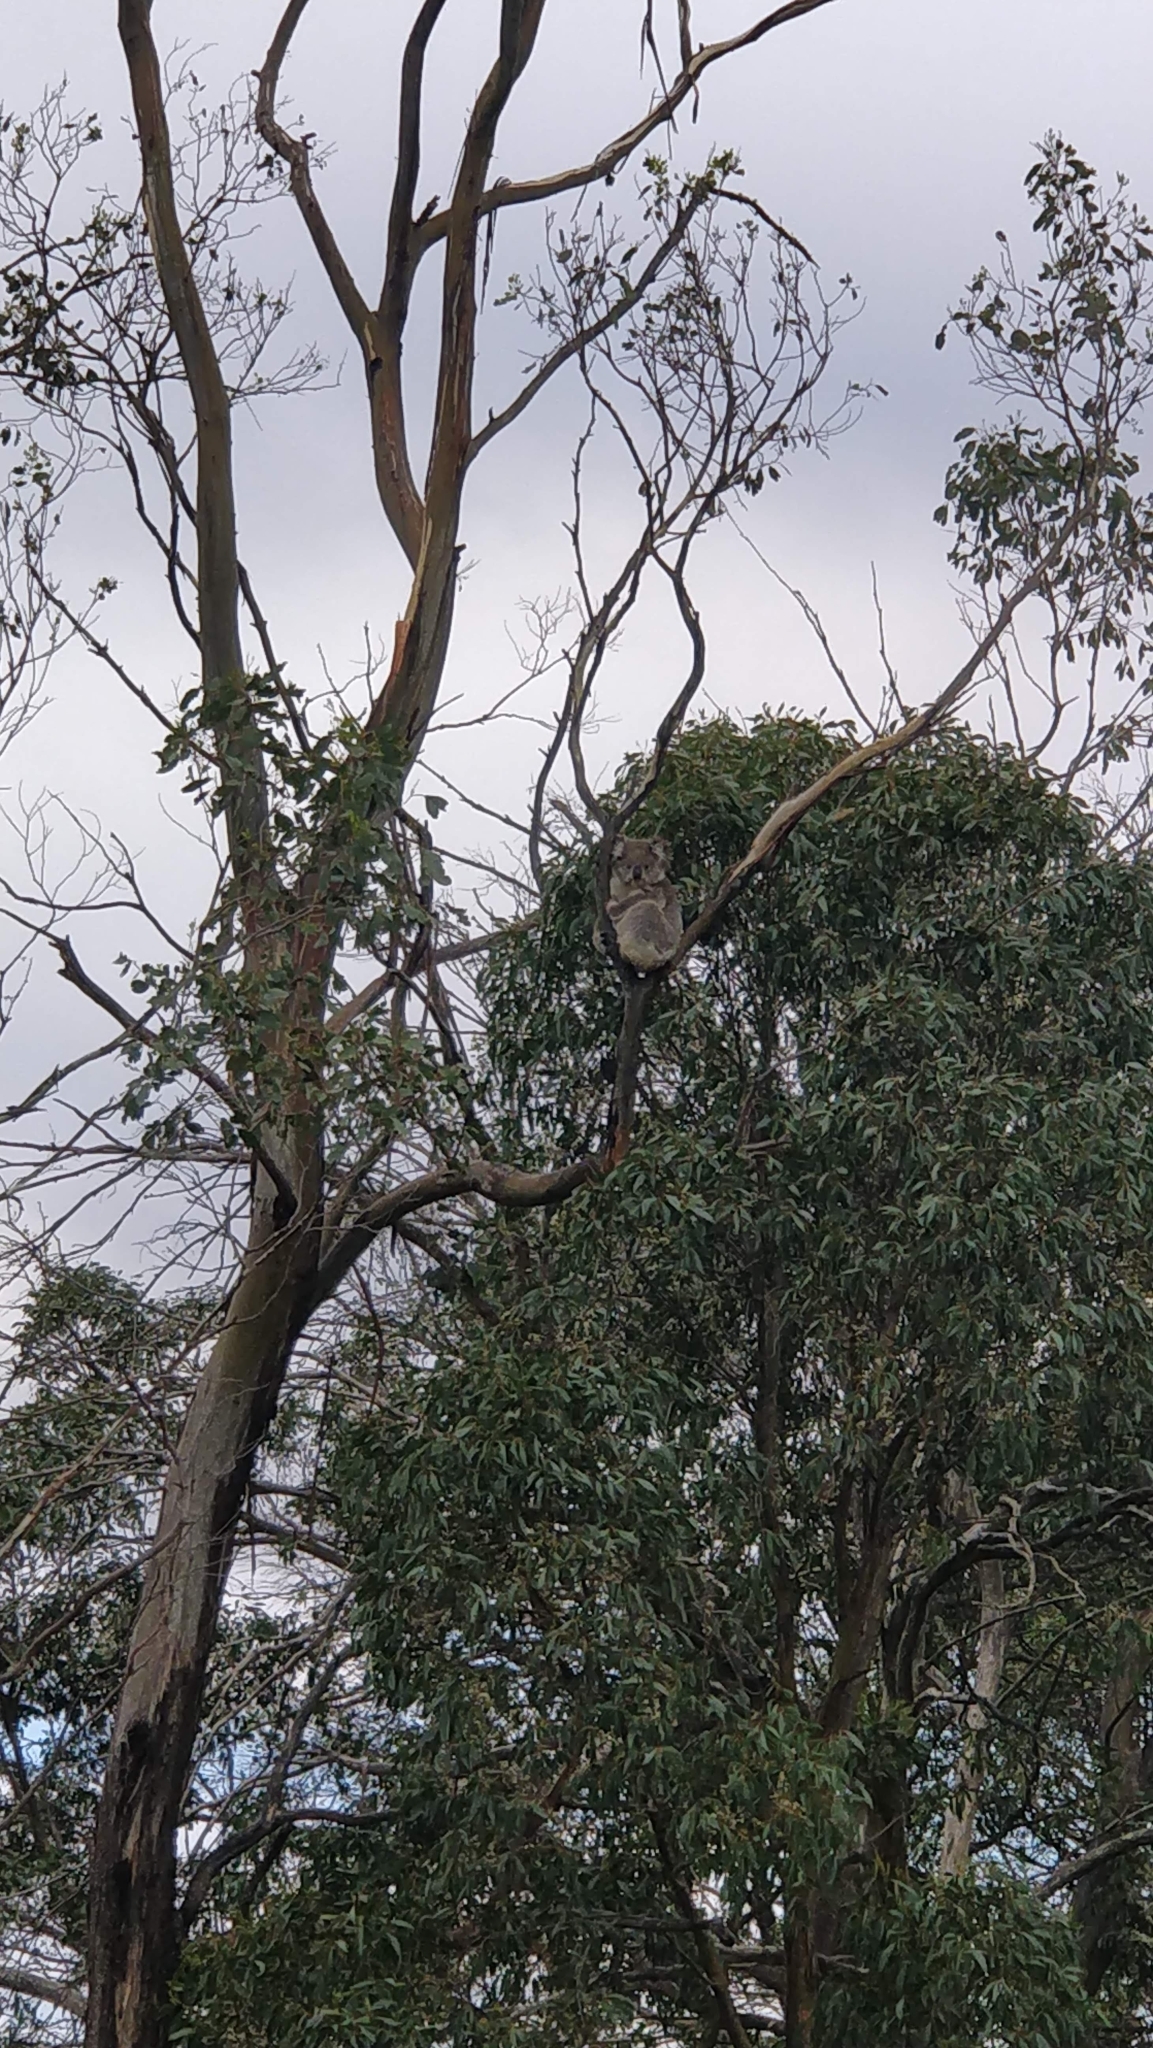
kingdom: Animalia
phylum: Chordata
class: Mammalia
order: Diprotodontia
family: Phascolarctidae
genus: Phascolarctos
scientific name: Phascolarctos cinereus
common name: Koala
